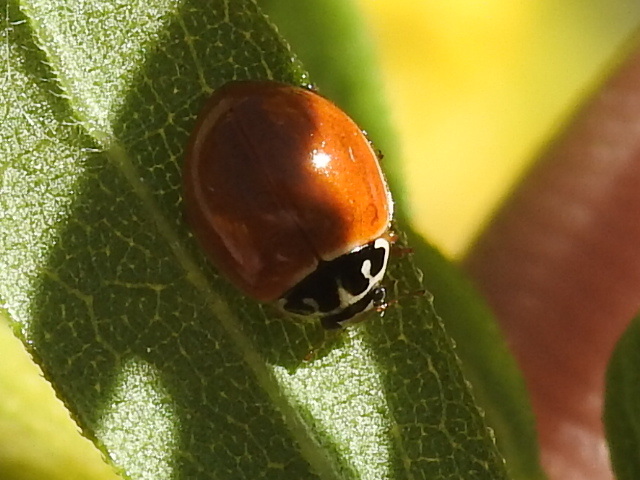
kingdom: Animalia
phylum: Arthropoda
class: Insecta
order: Coleoptera
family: Coccinellidae
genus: Cycloneda
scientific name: Cycloneda munda
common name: Polished lady beetle
